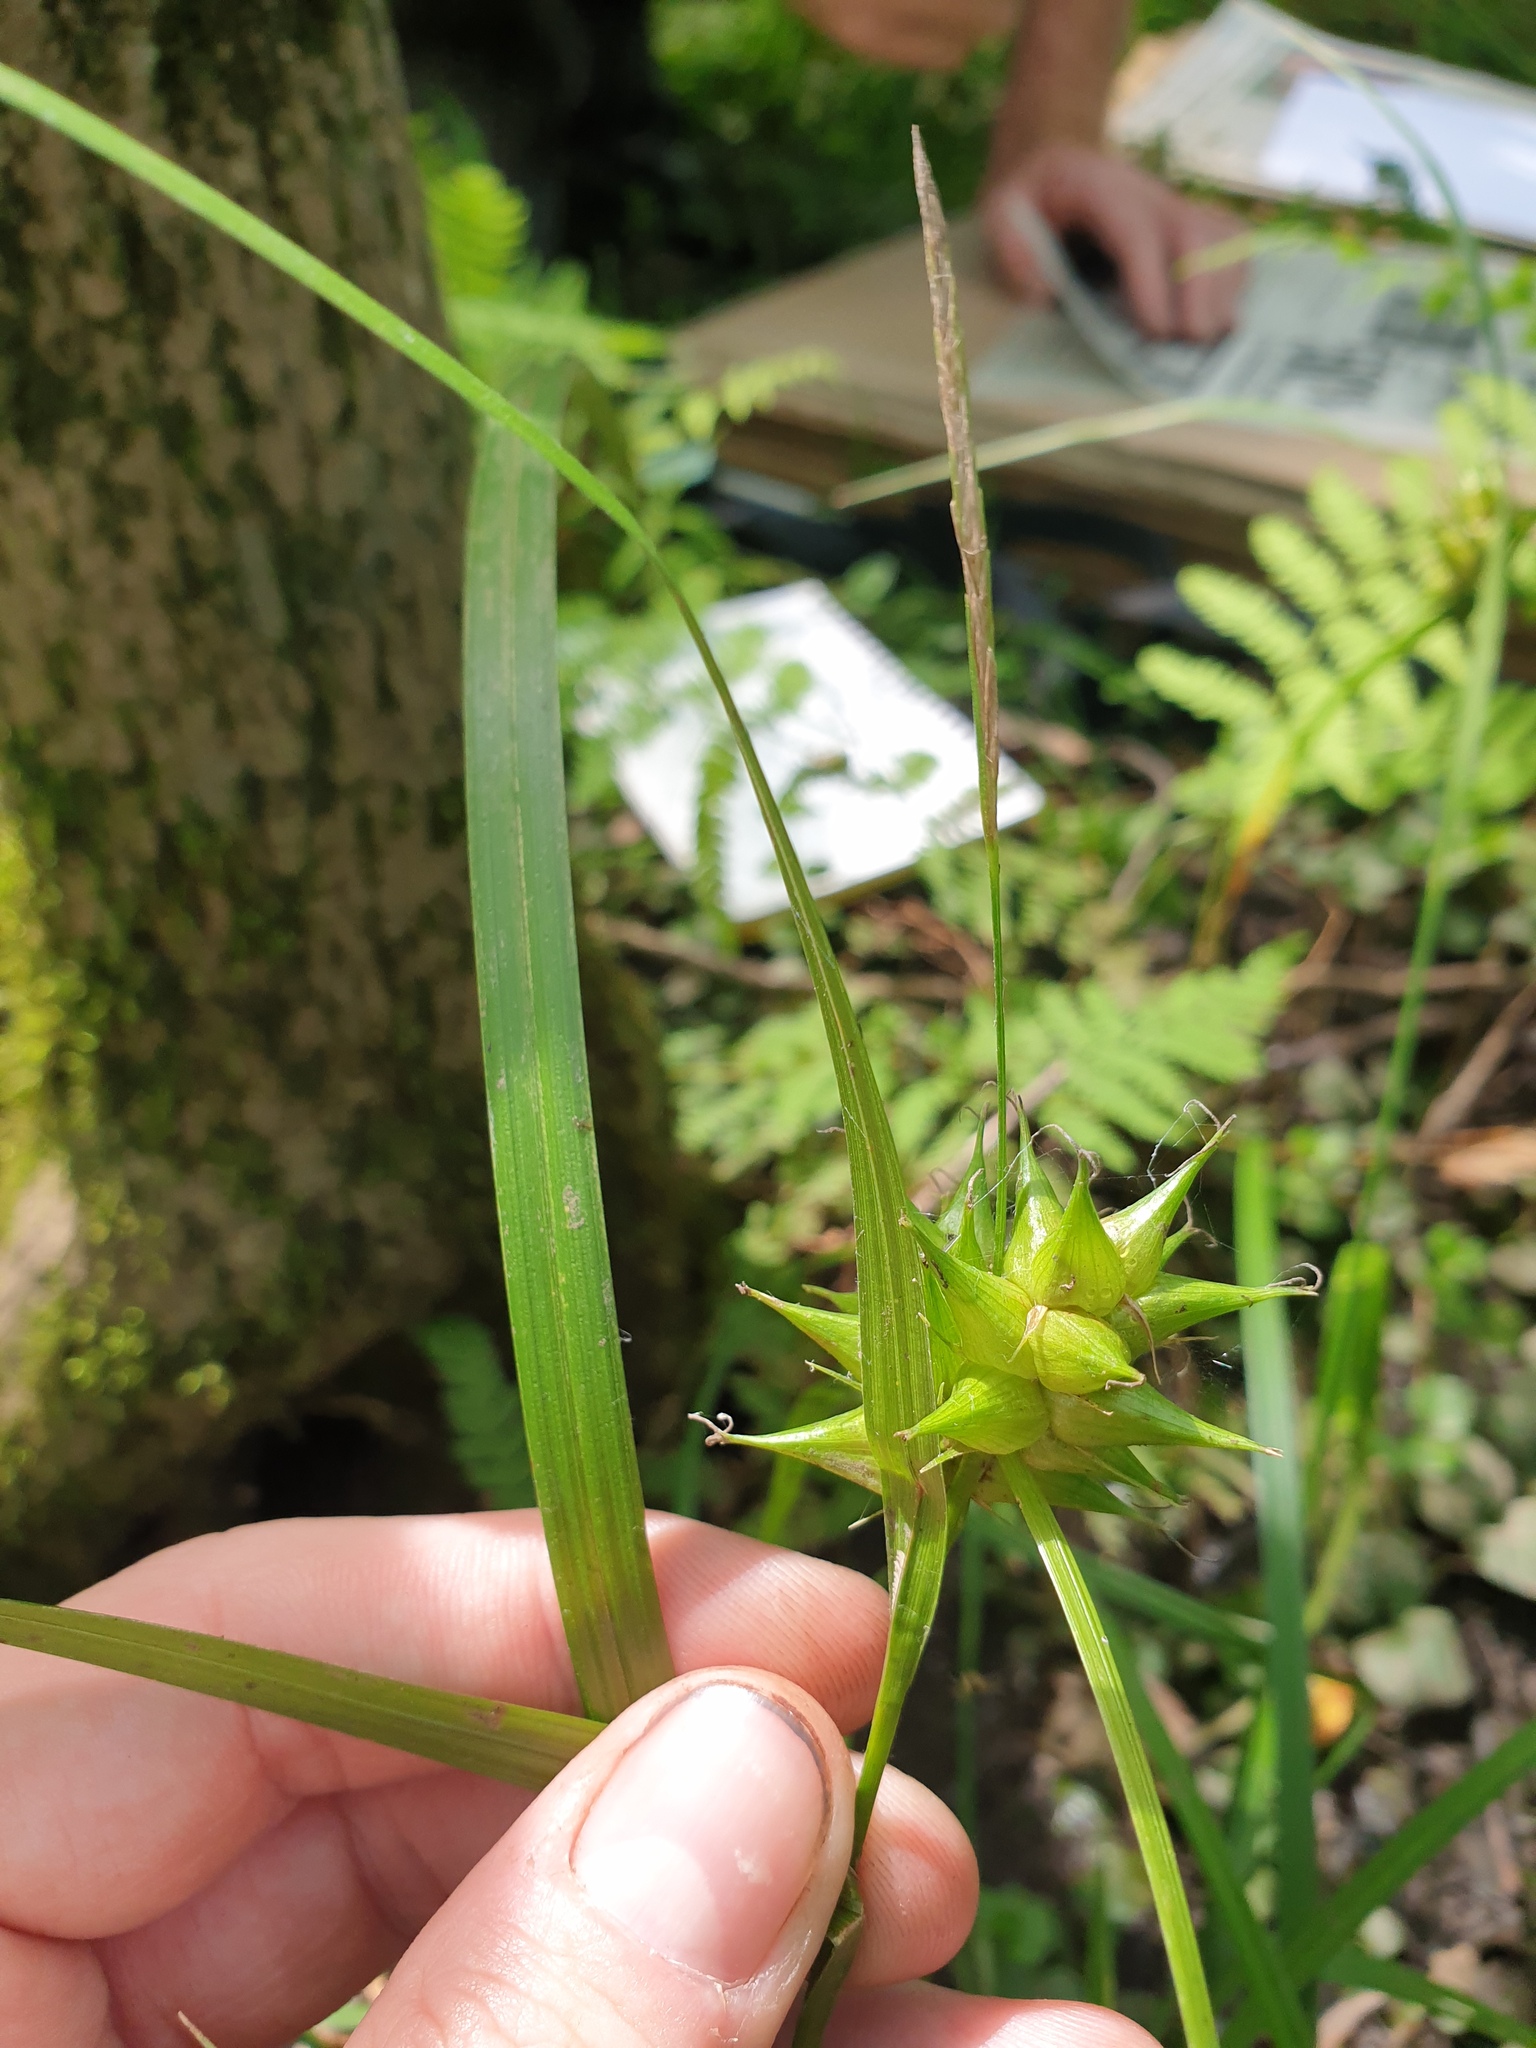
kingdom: Plantae
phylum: Tracheophyta
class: Liliopsida
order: Poales
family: Cyperaceae
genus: Carex
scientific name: Carex intumescens
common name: Greater bladder sedge
